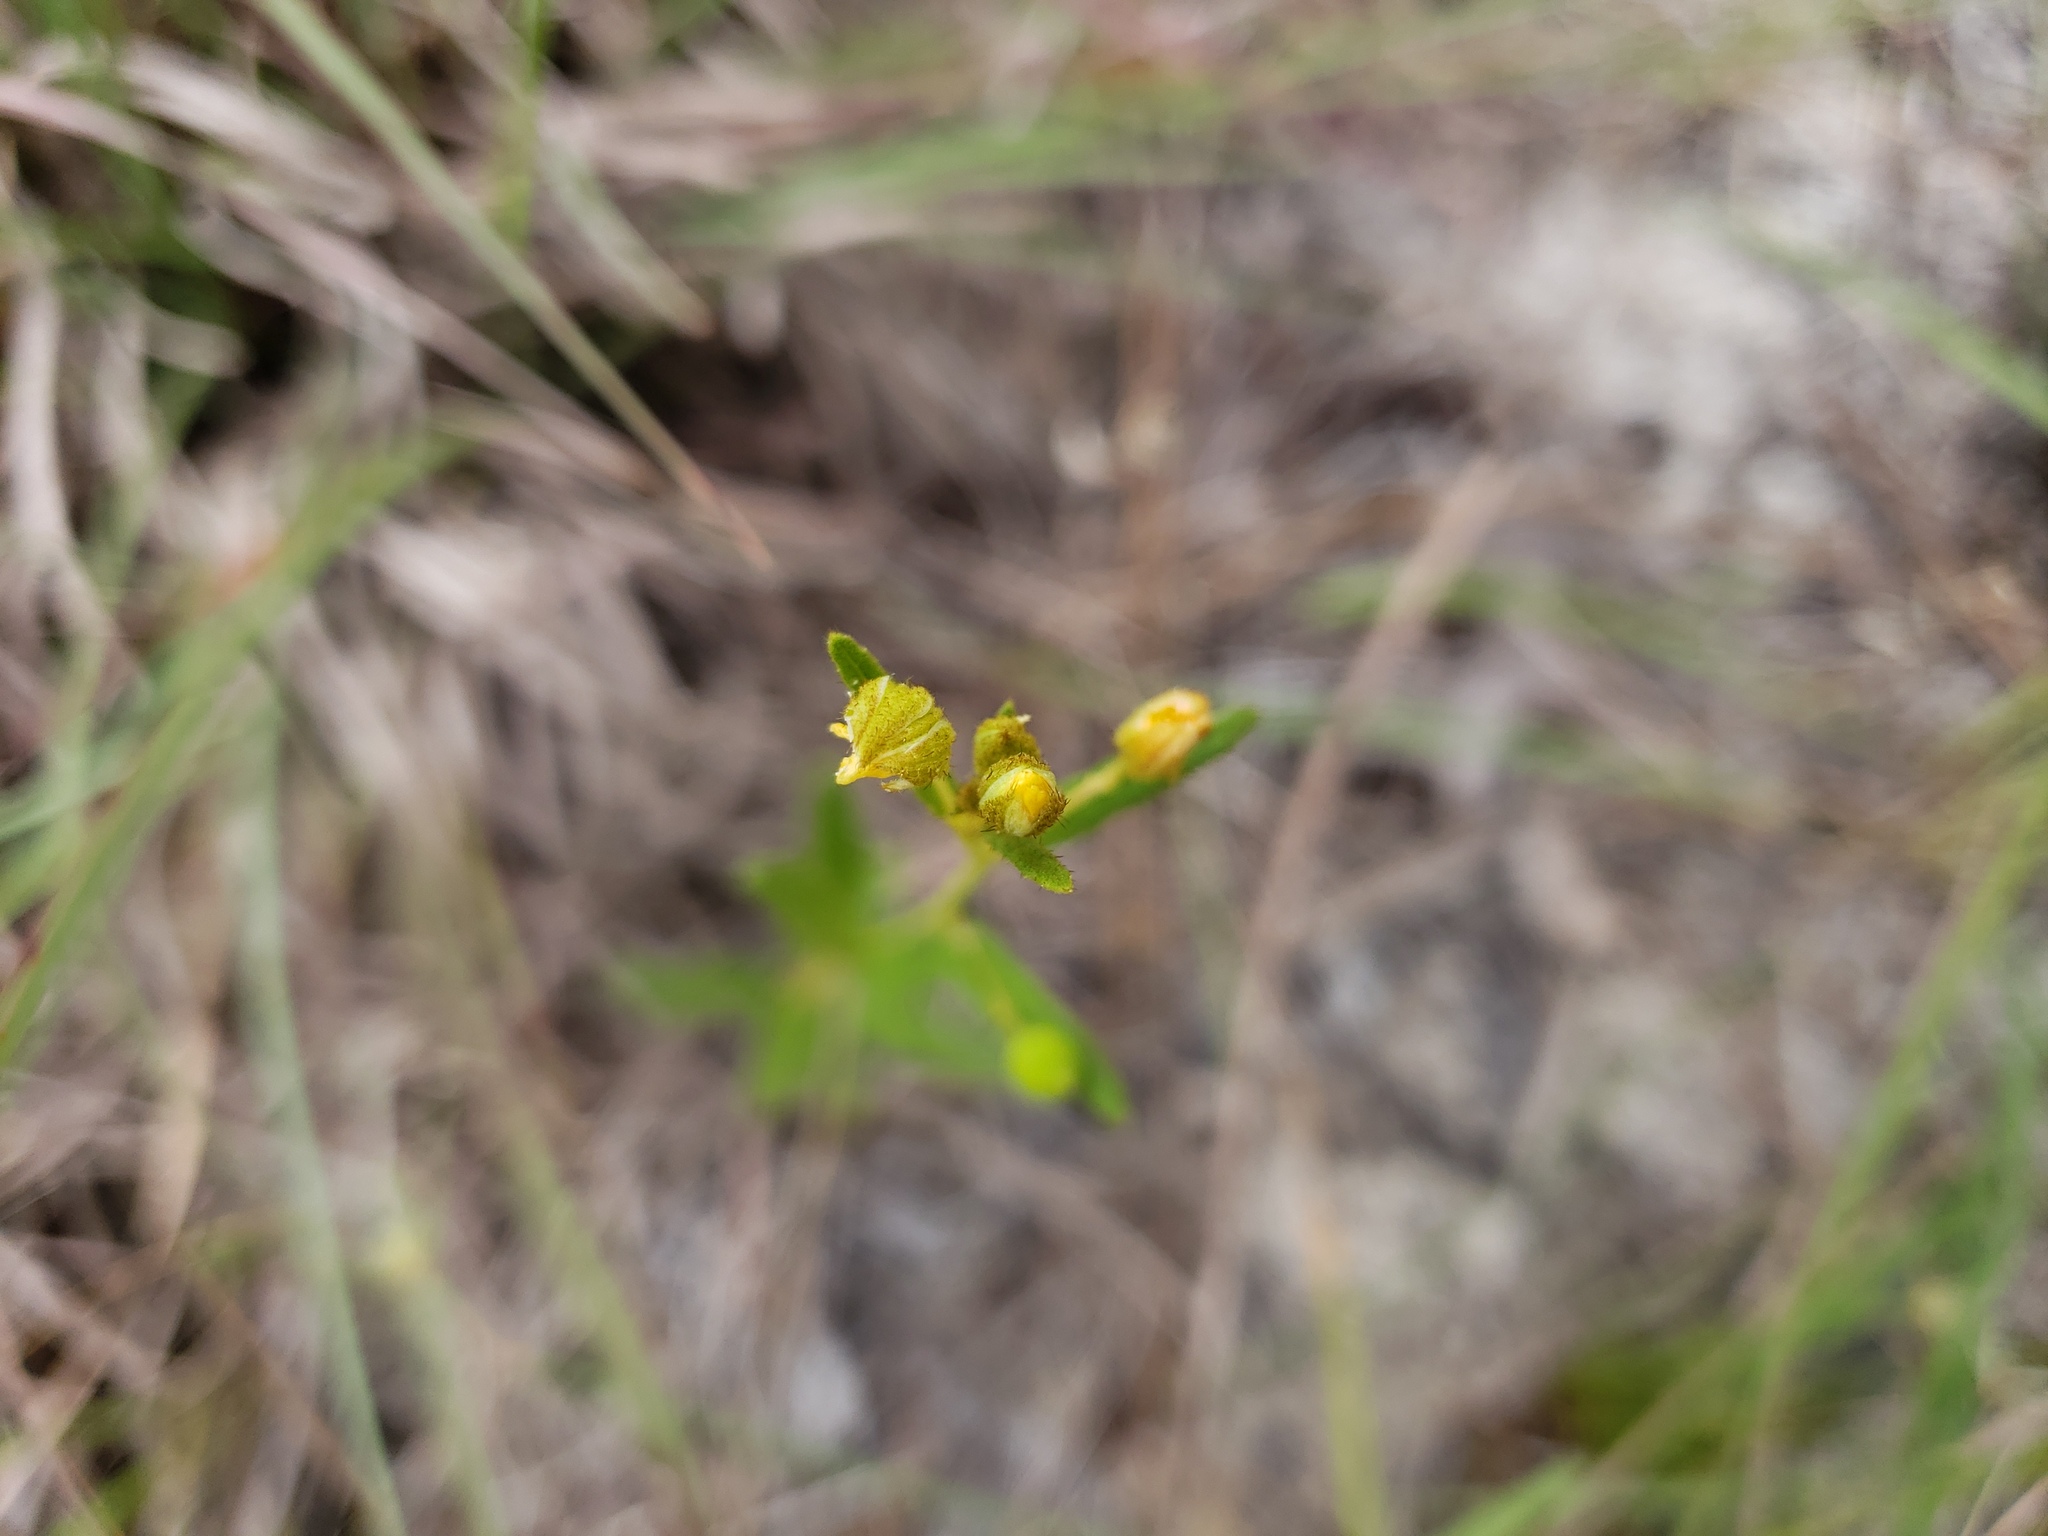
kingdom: Plantae
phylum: Tracheophyta
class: Magnoliopsida
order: Malpighiales
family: Turneraceae
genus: Piriqueta
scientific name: Piriqueta cistoides
